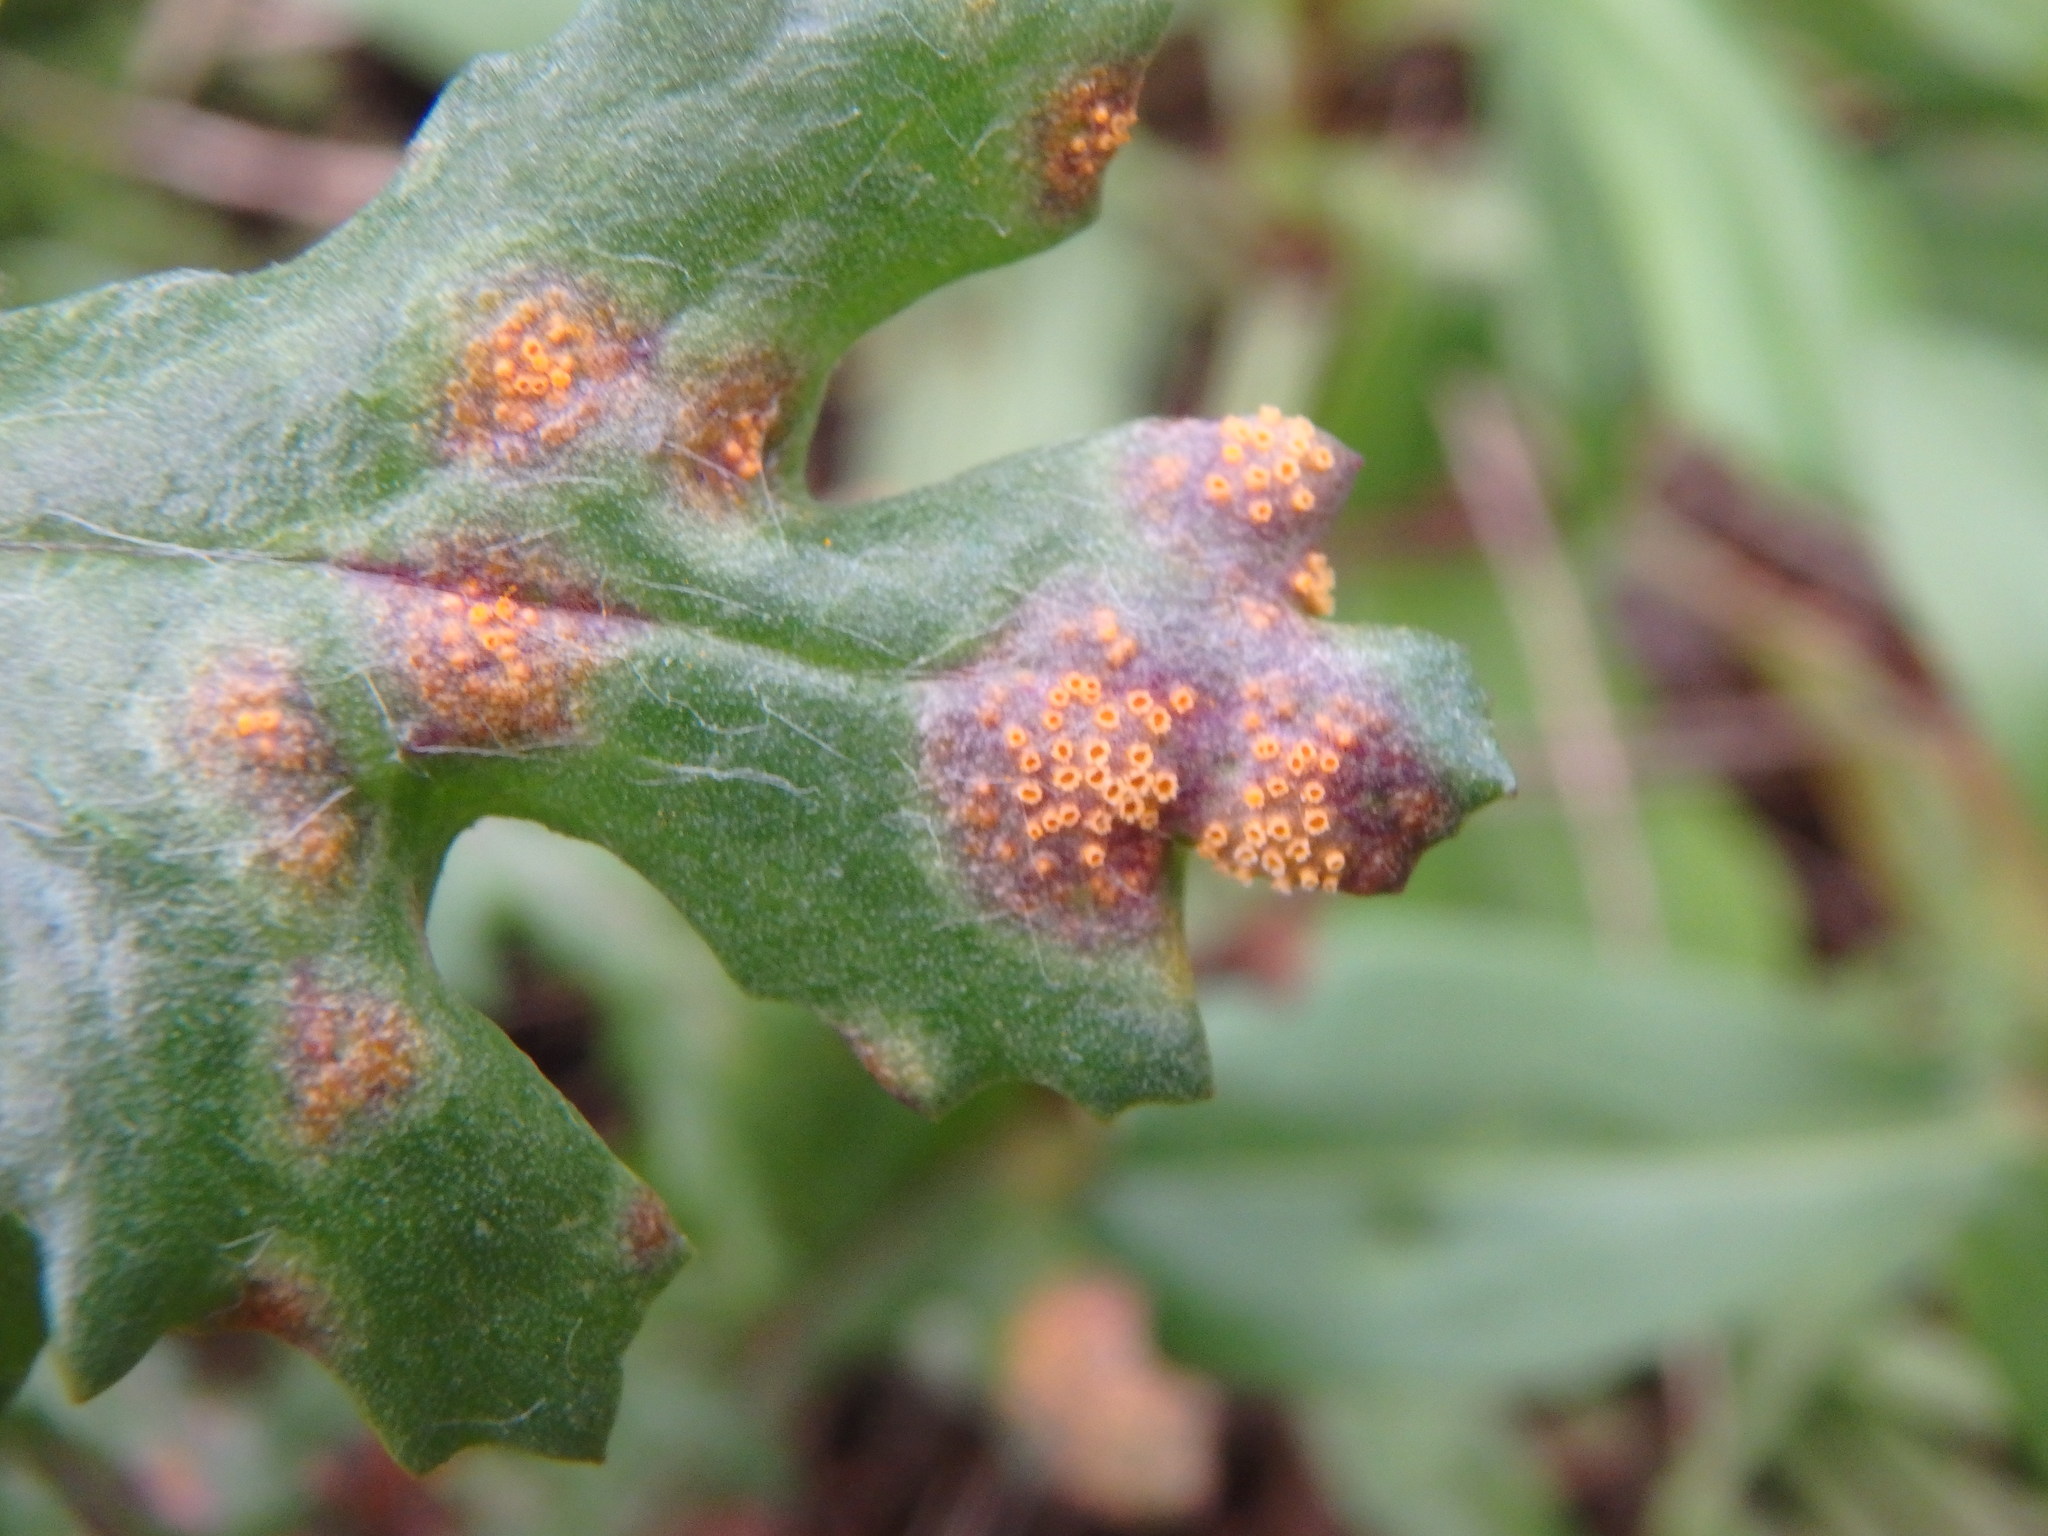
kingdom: Fungi
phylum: Basidiomycota
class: Pucciniomycetes
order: Pucciniales
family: Pucciniaceae
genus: Puccinia
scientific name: Puccinia lagenophorae
